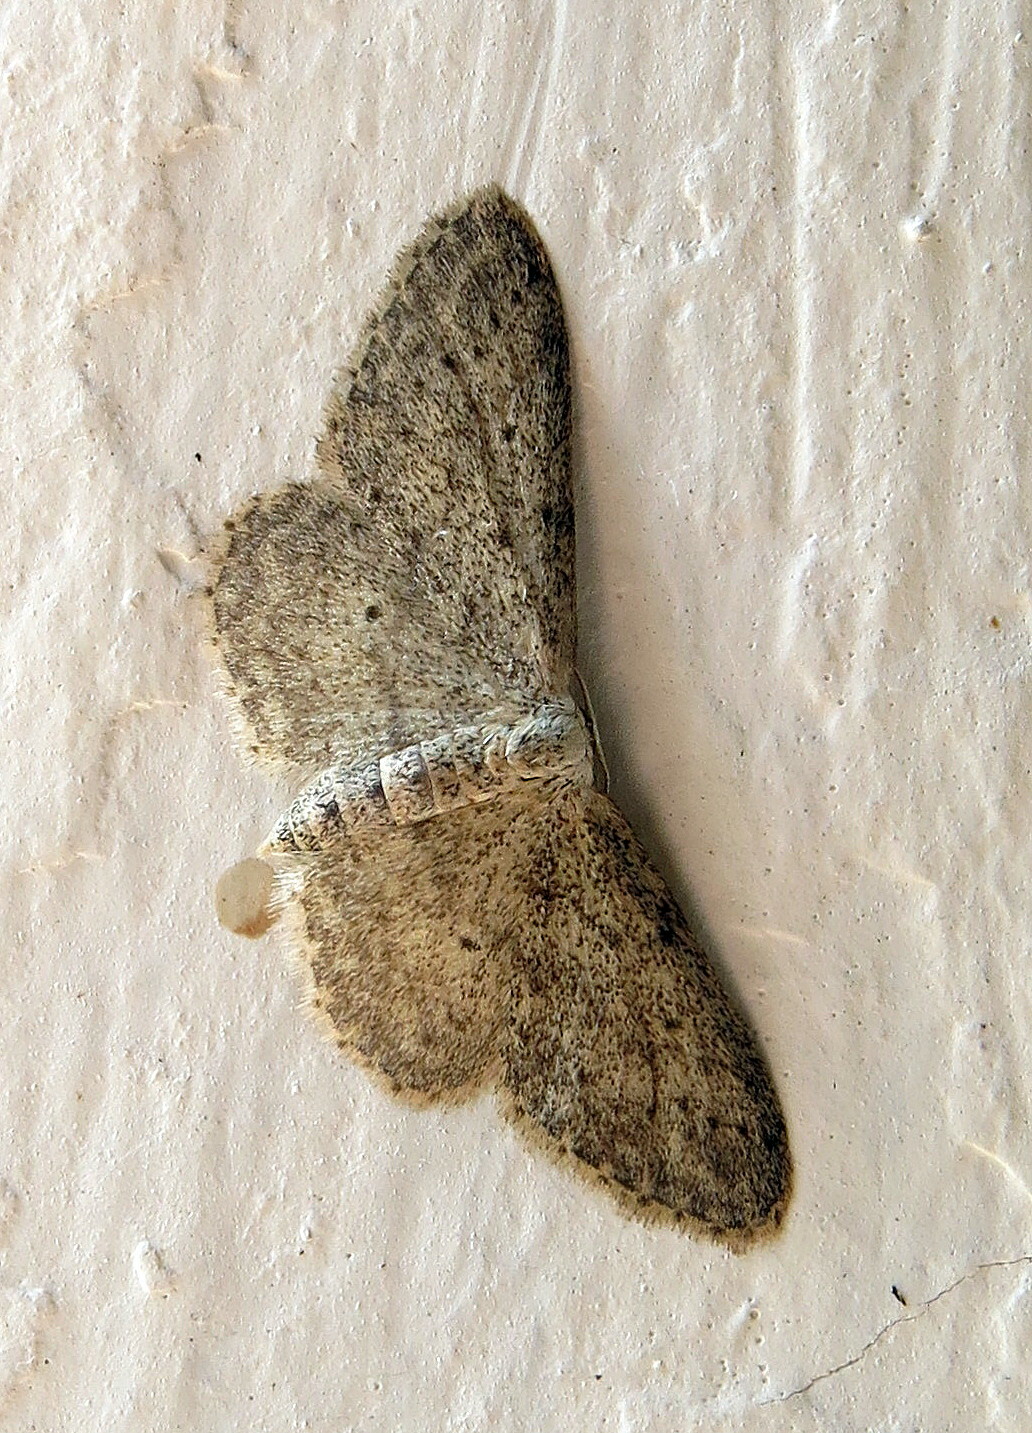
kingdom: Animalia
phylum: Arthropoda
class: Insecta
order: Lepidoptera
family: Geometridae
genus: Idaea
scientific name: Idaea seriata
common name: Small dusty wave
